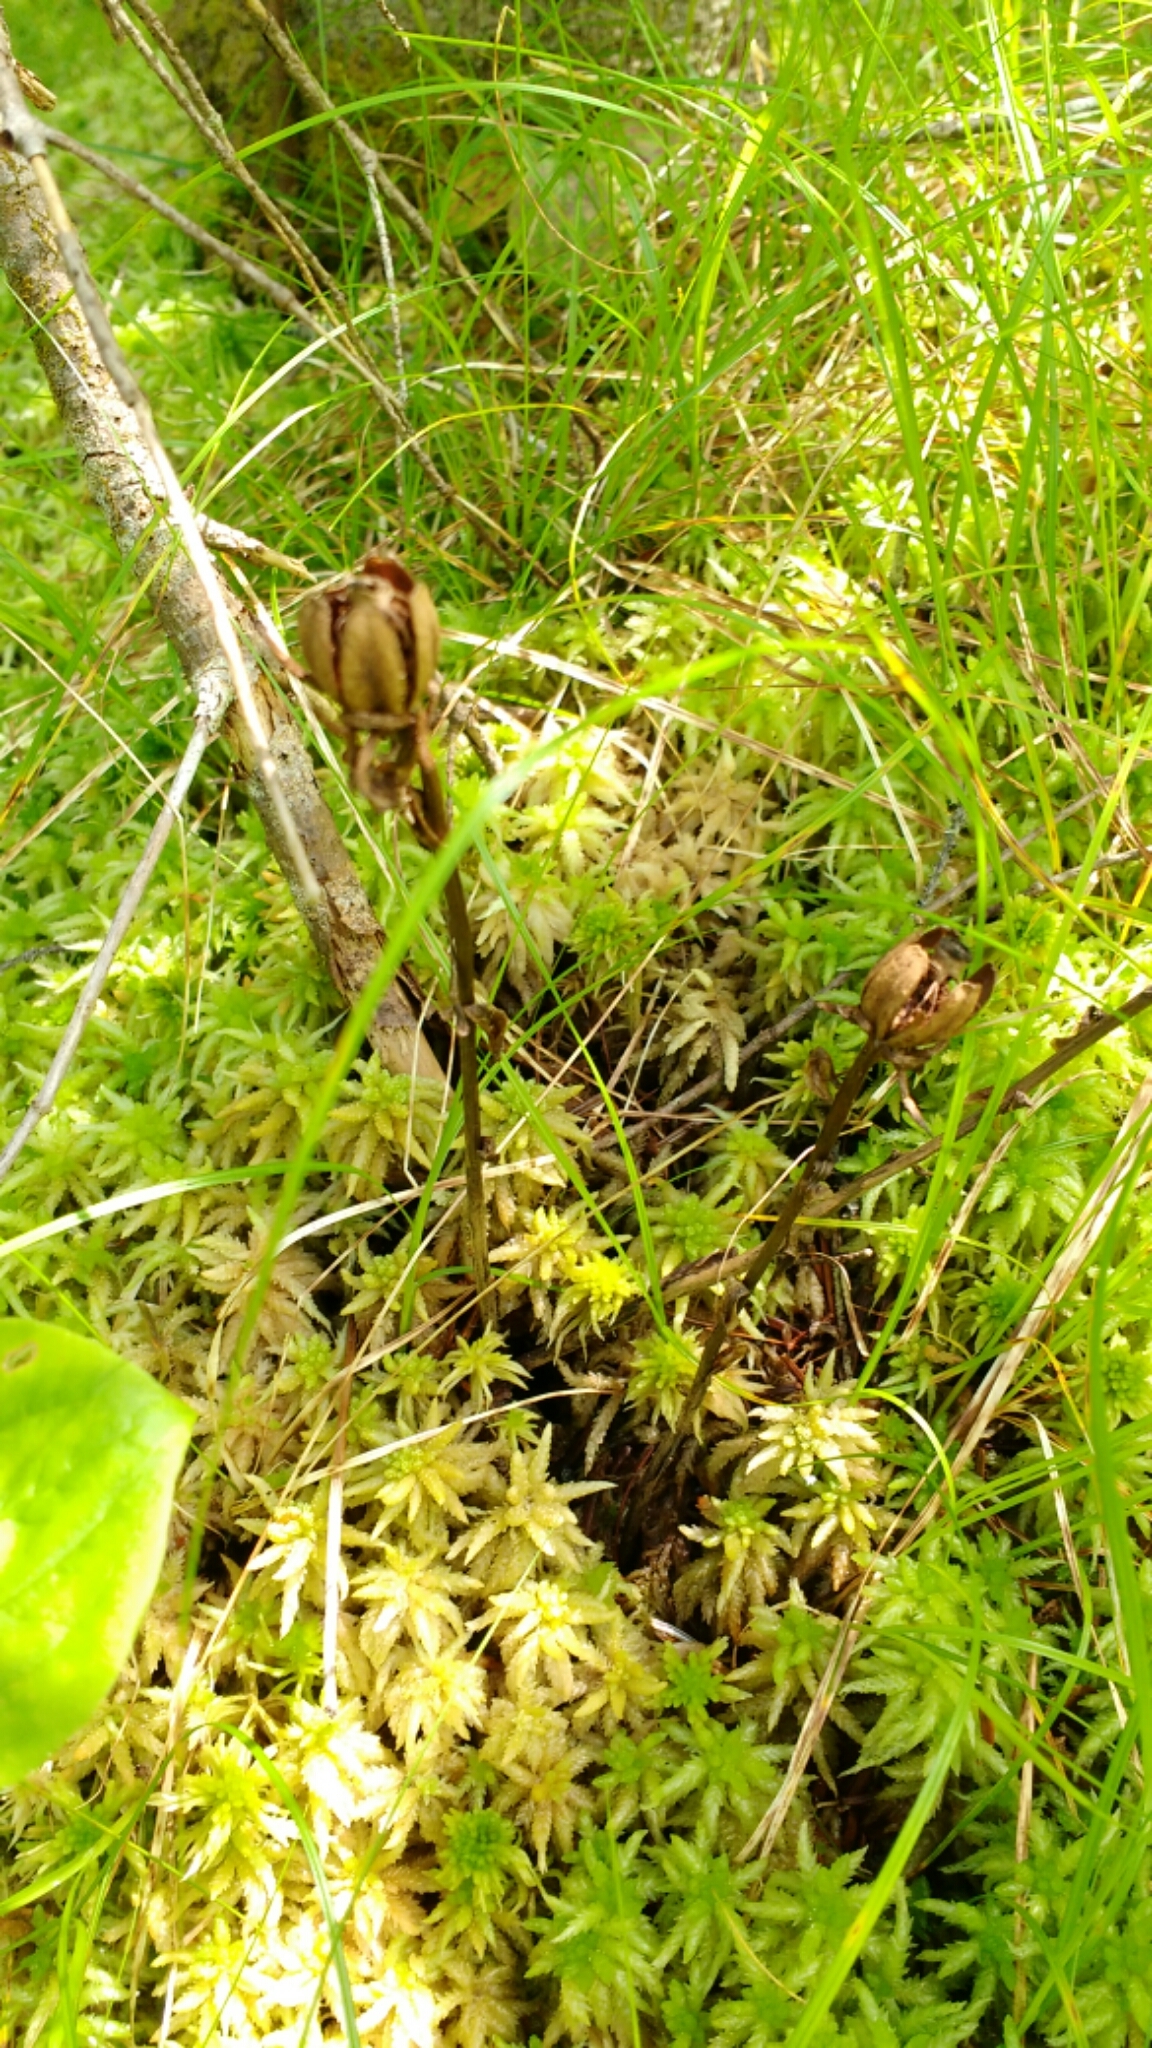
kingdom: Plantae
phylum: Tracheophyta
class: Magnoliopsida
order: Ericales
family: Ericaceae
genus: Monotropa
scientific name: Monotropa uniflora
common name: Convulsion root
